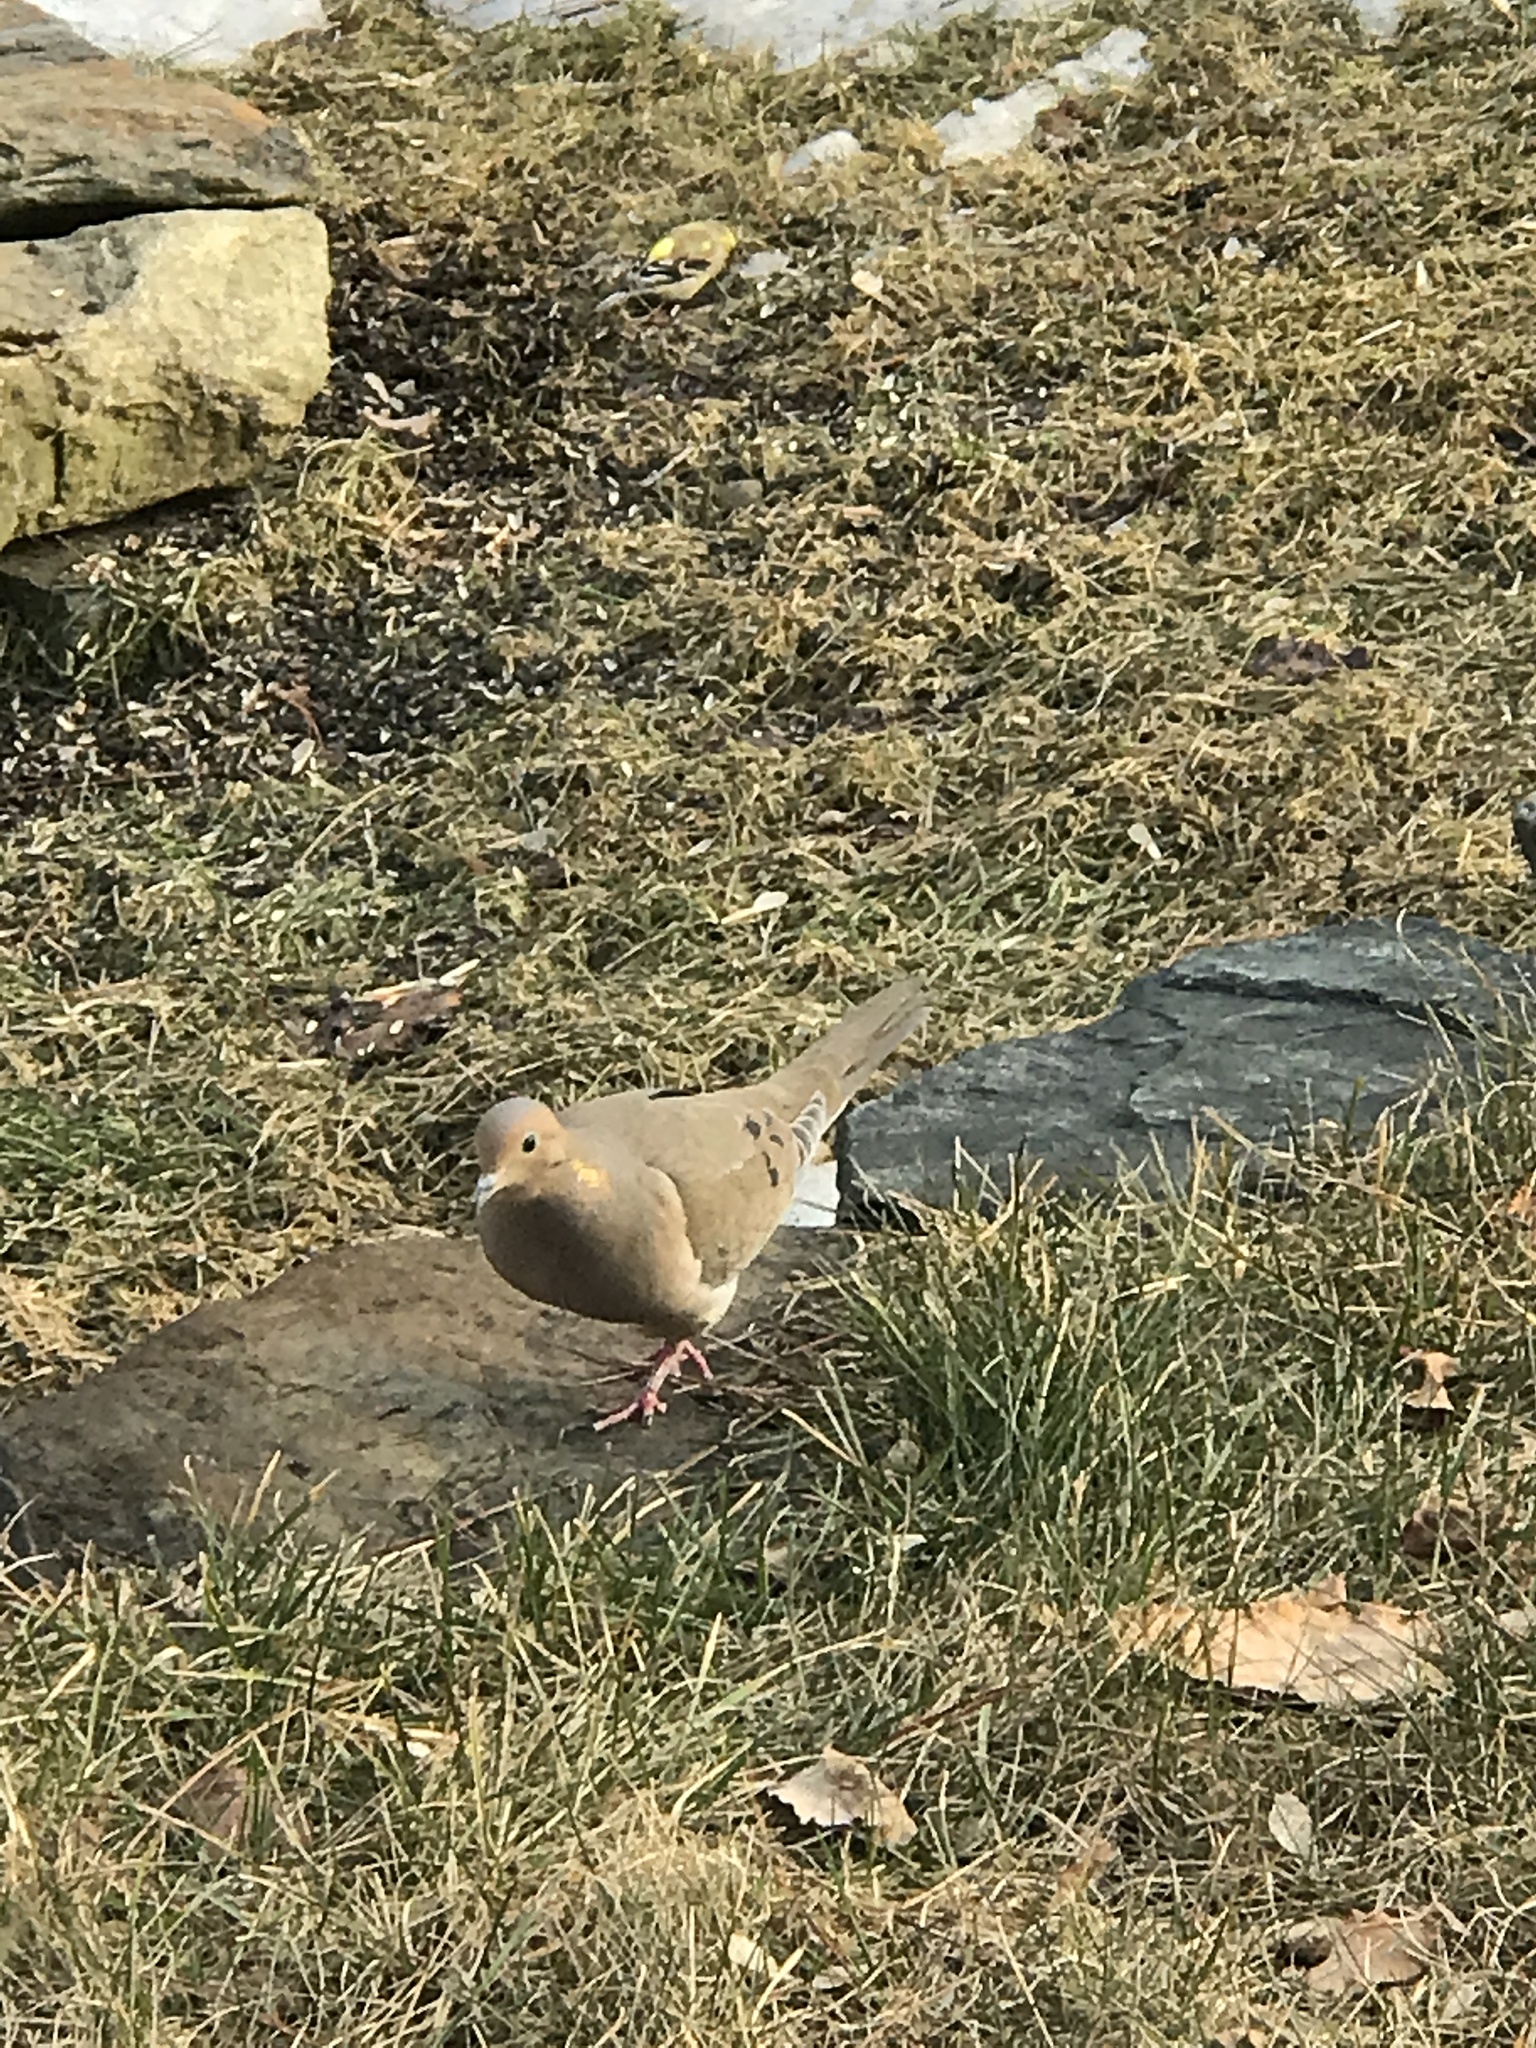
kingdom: Animalia
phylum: Chordata
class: Aves
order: Columbiformes
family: Columbidae
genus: Zenaida
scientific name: Zenaida macroura
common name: Mourning dove
